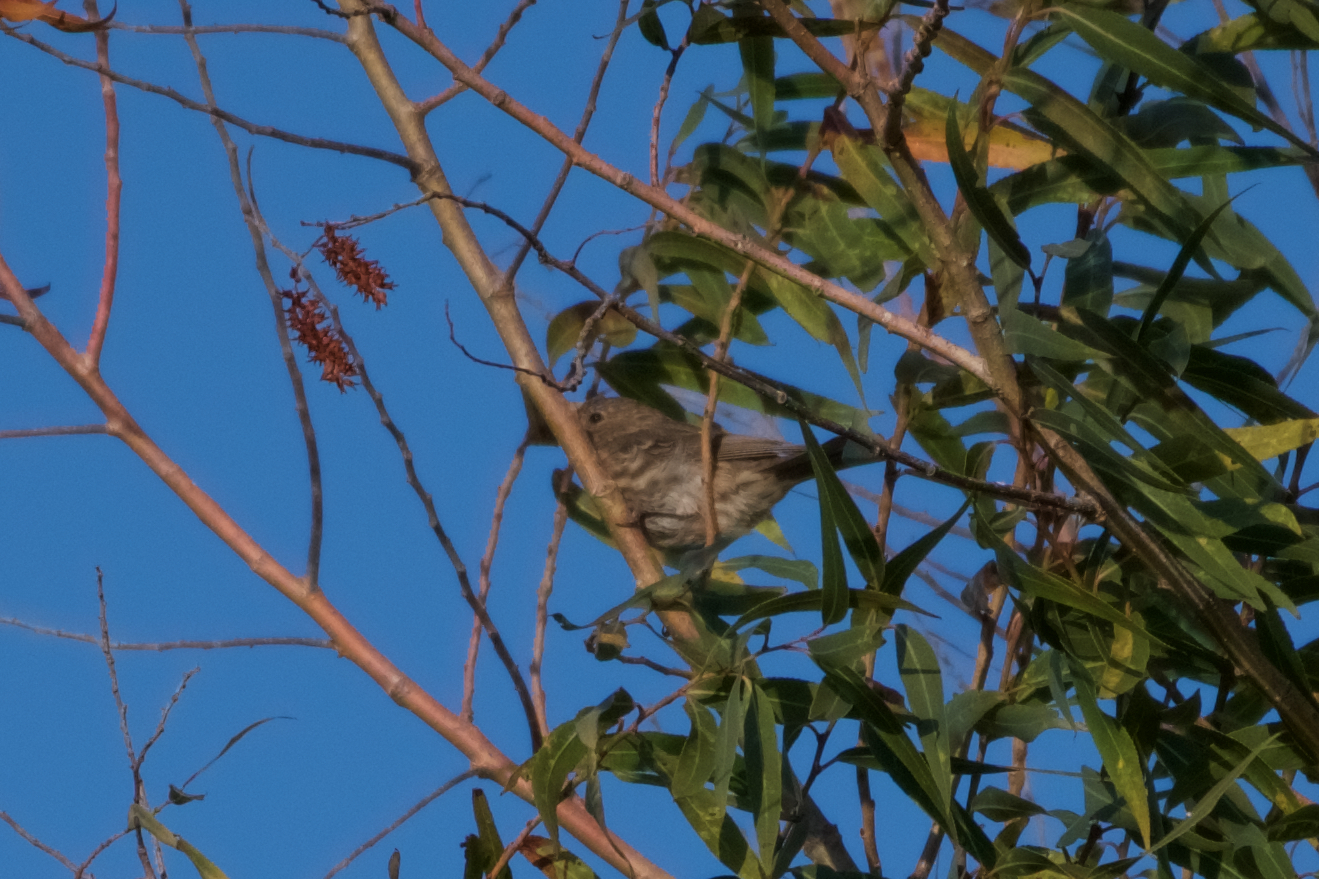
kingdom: Animalia
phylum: Chordata
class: Aves
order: Passeriformes
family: Fringillidae
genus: Haemorhous
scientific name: Haemorhous mexicanus
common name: House finch
